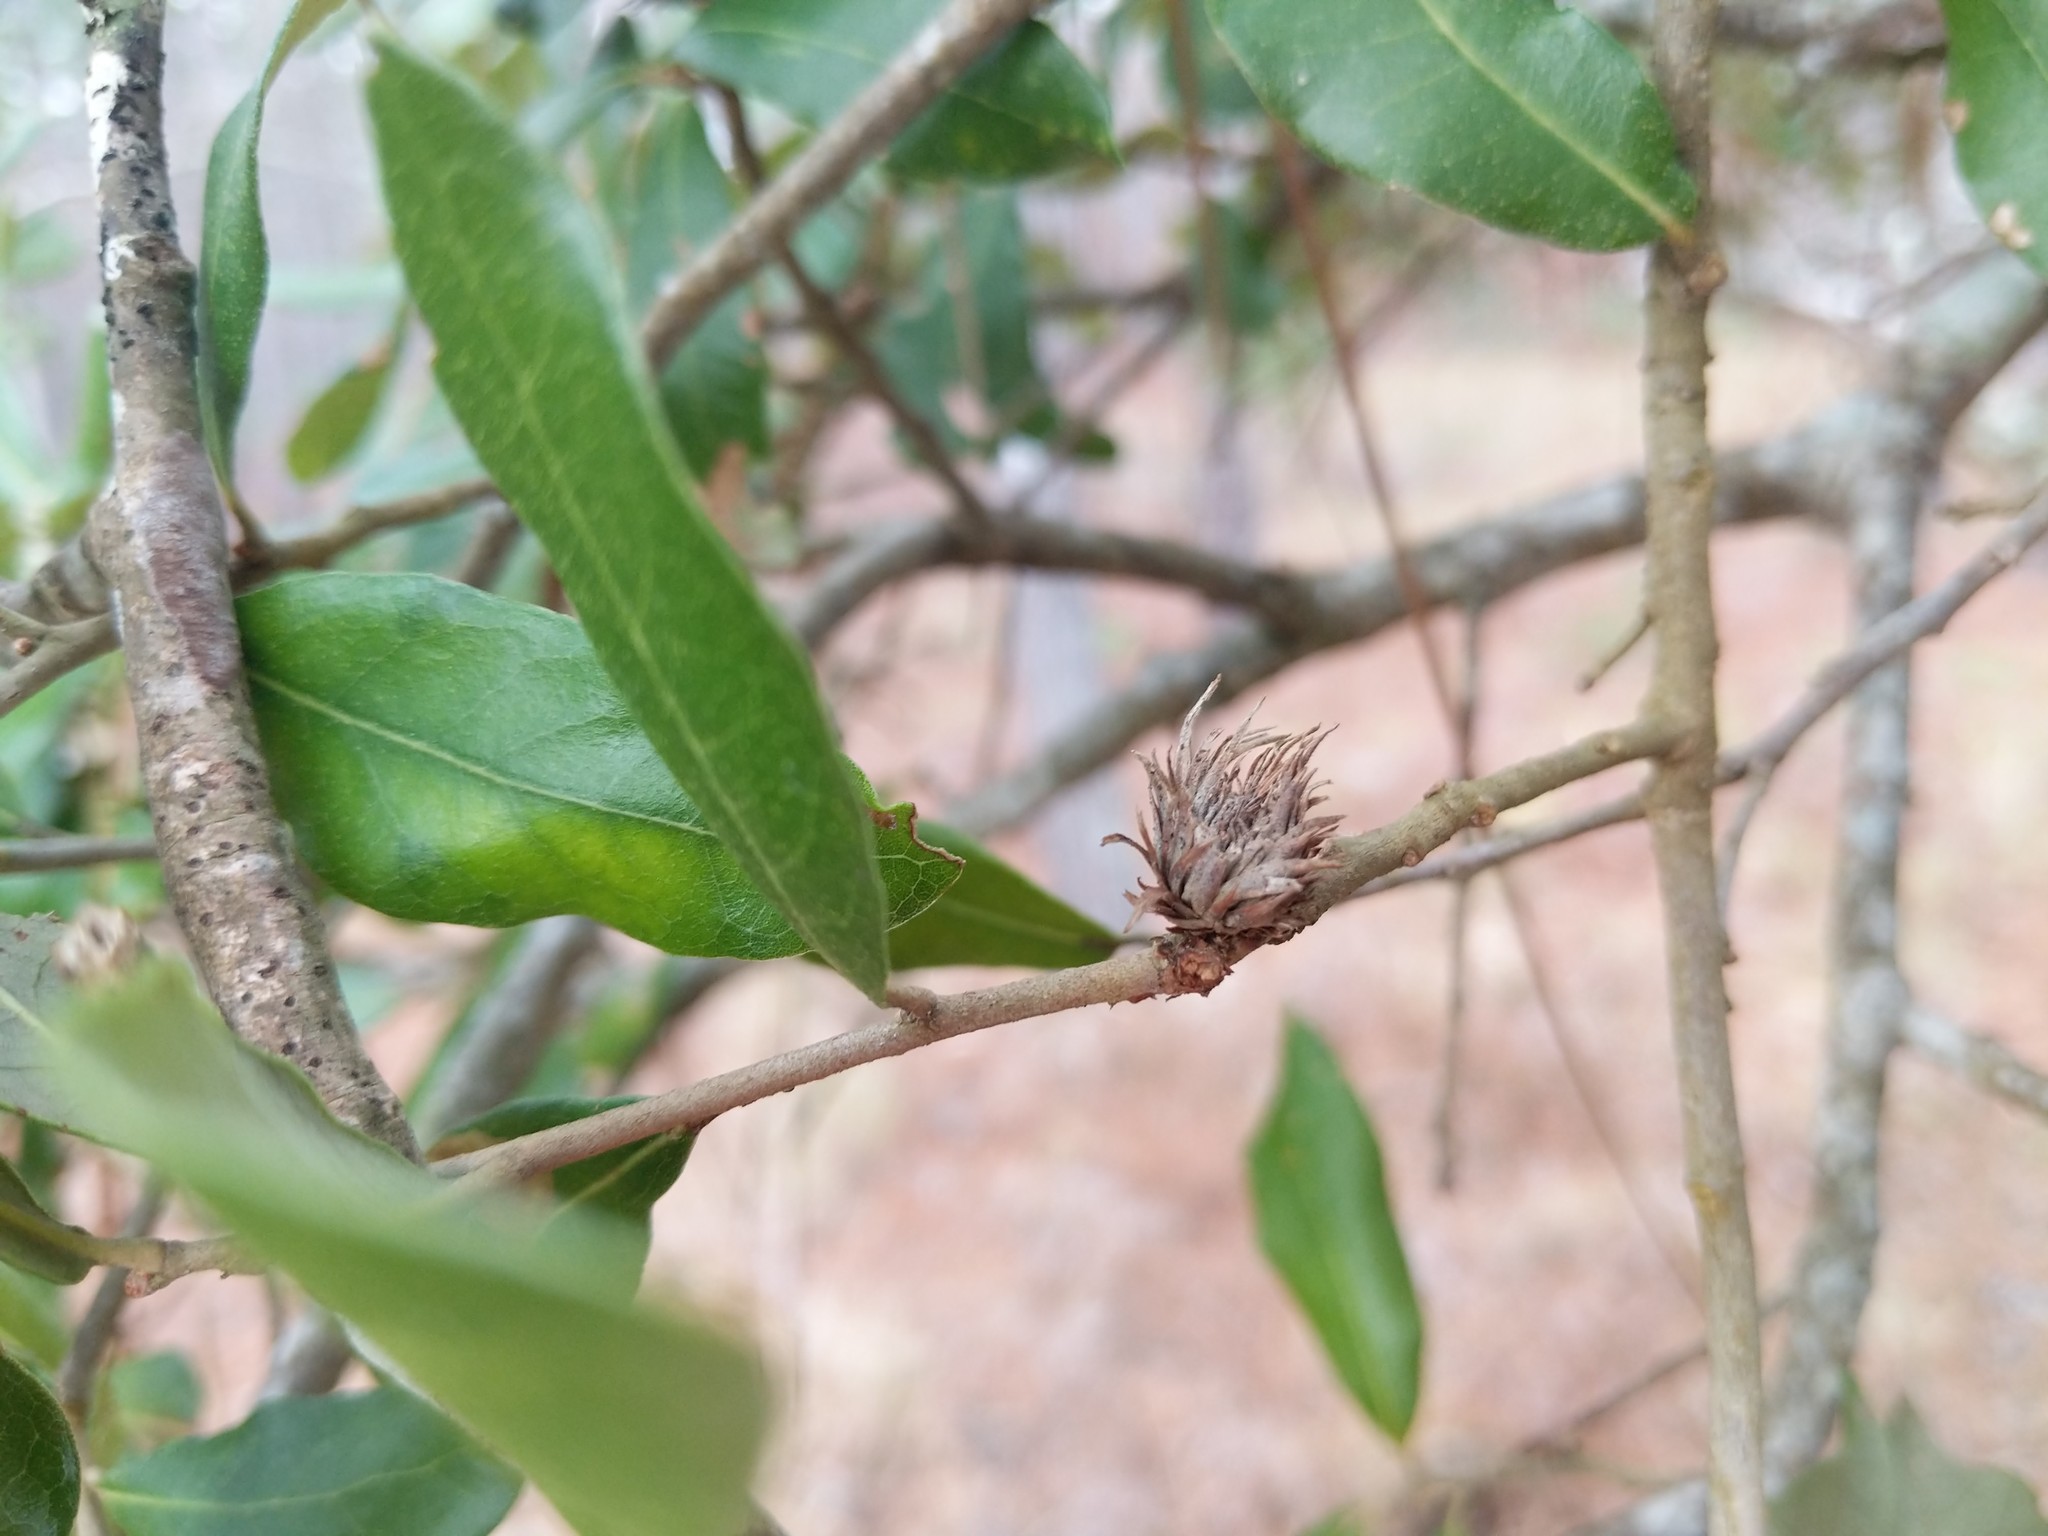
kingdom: Animalia
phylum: Arthropoda
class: Insecta
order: Hymenoptera
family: Cynipidae
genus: Andricus
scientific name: Andricus quercusfoliatus
